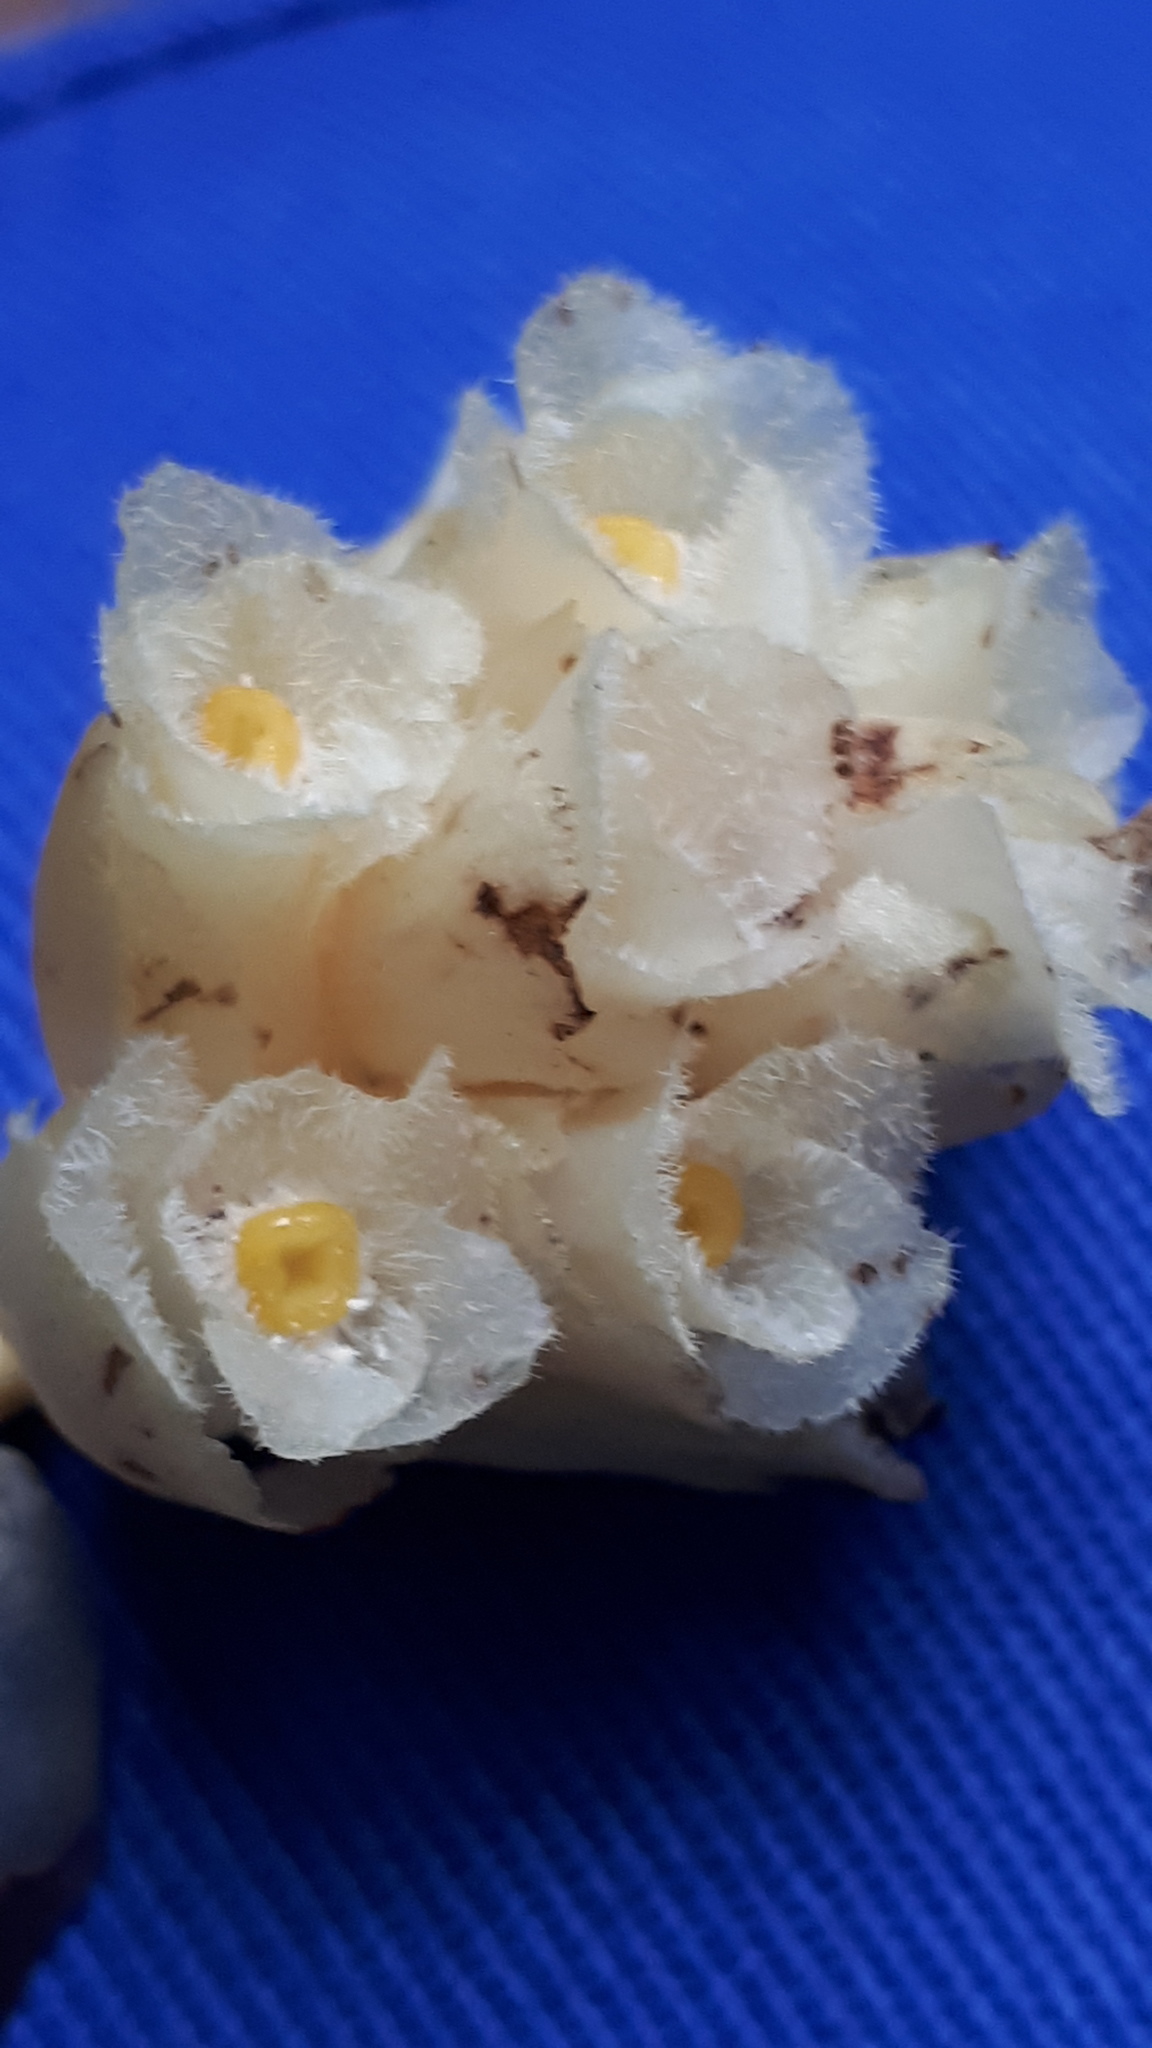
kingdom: Plantae
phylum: Tracheophyta
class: Magnoliopsida
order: Ericales
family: Ericaceae
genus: Hypopitys
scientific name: Hypopitys monotropa
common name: Yellow bird's-nest
